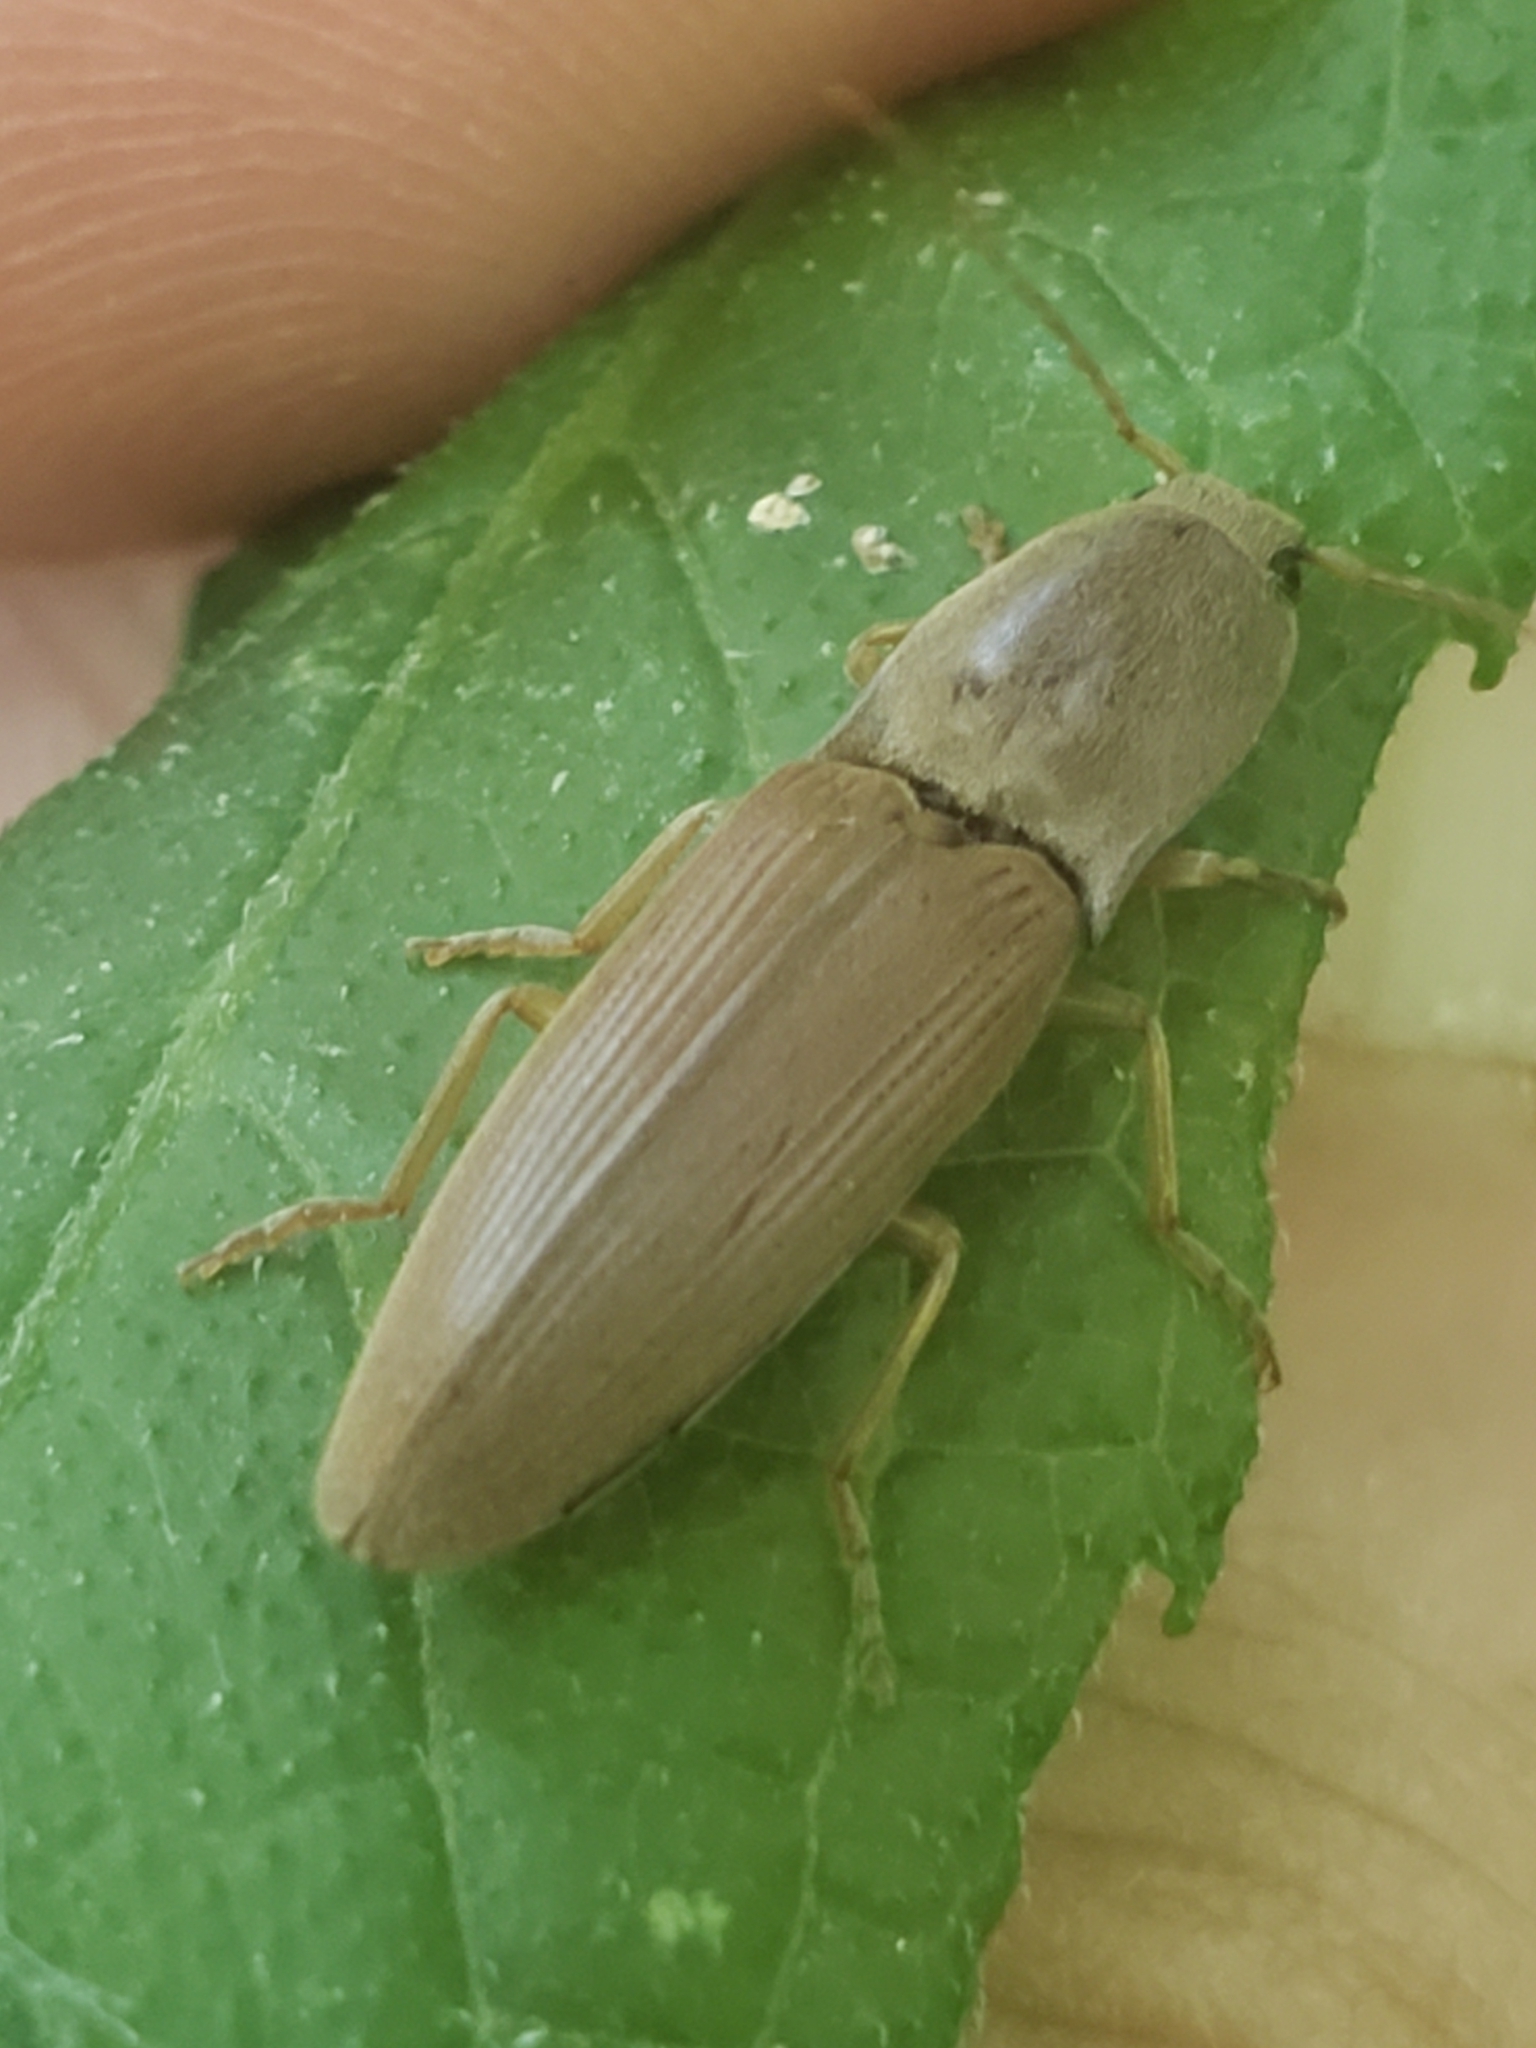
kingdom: Animalia
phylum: Arthropoda
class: Insecta
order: Coleoptera
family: Elateridae
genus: Monocrepidius
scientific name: Monocrepidius lividus
